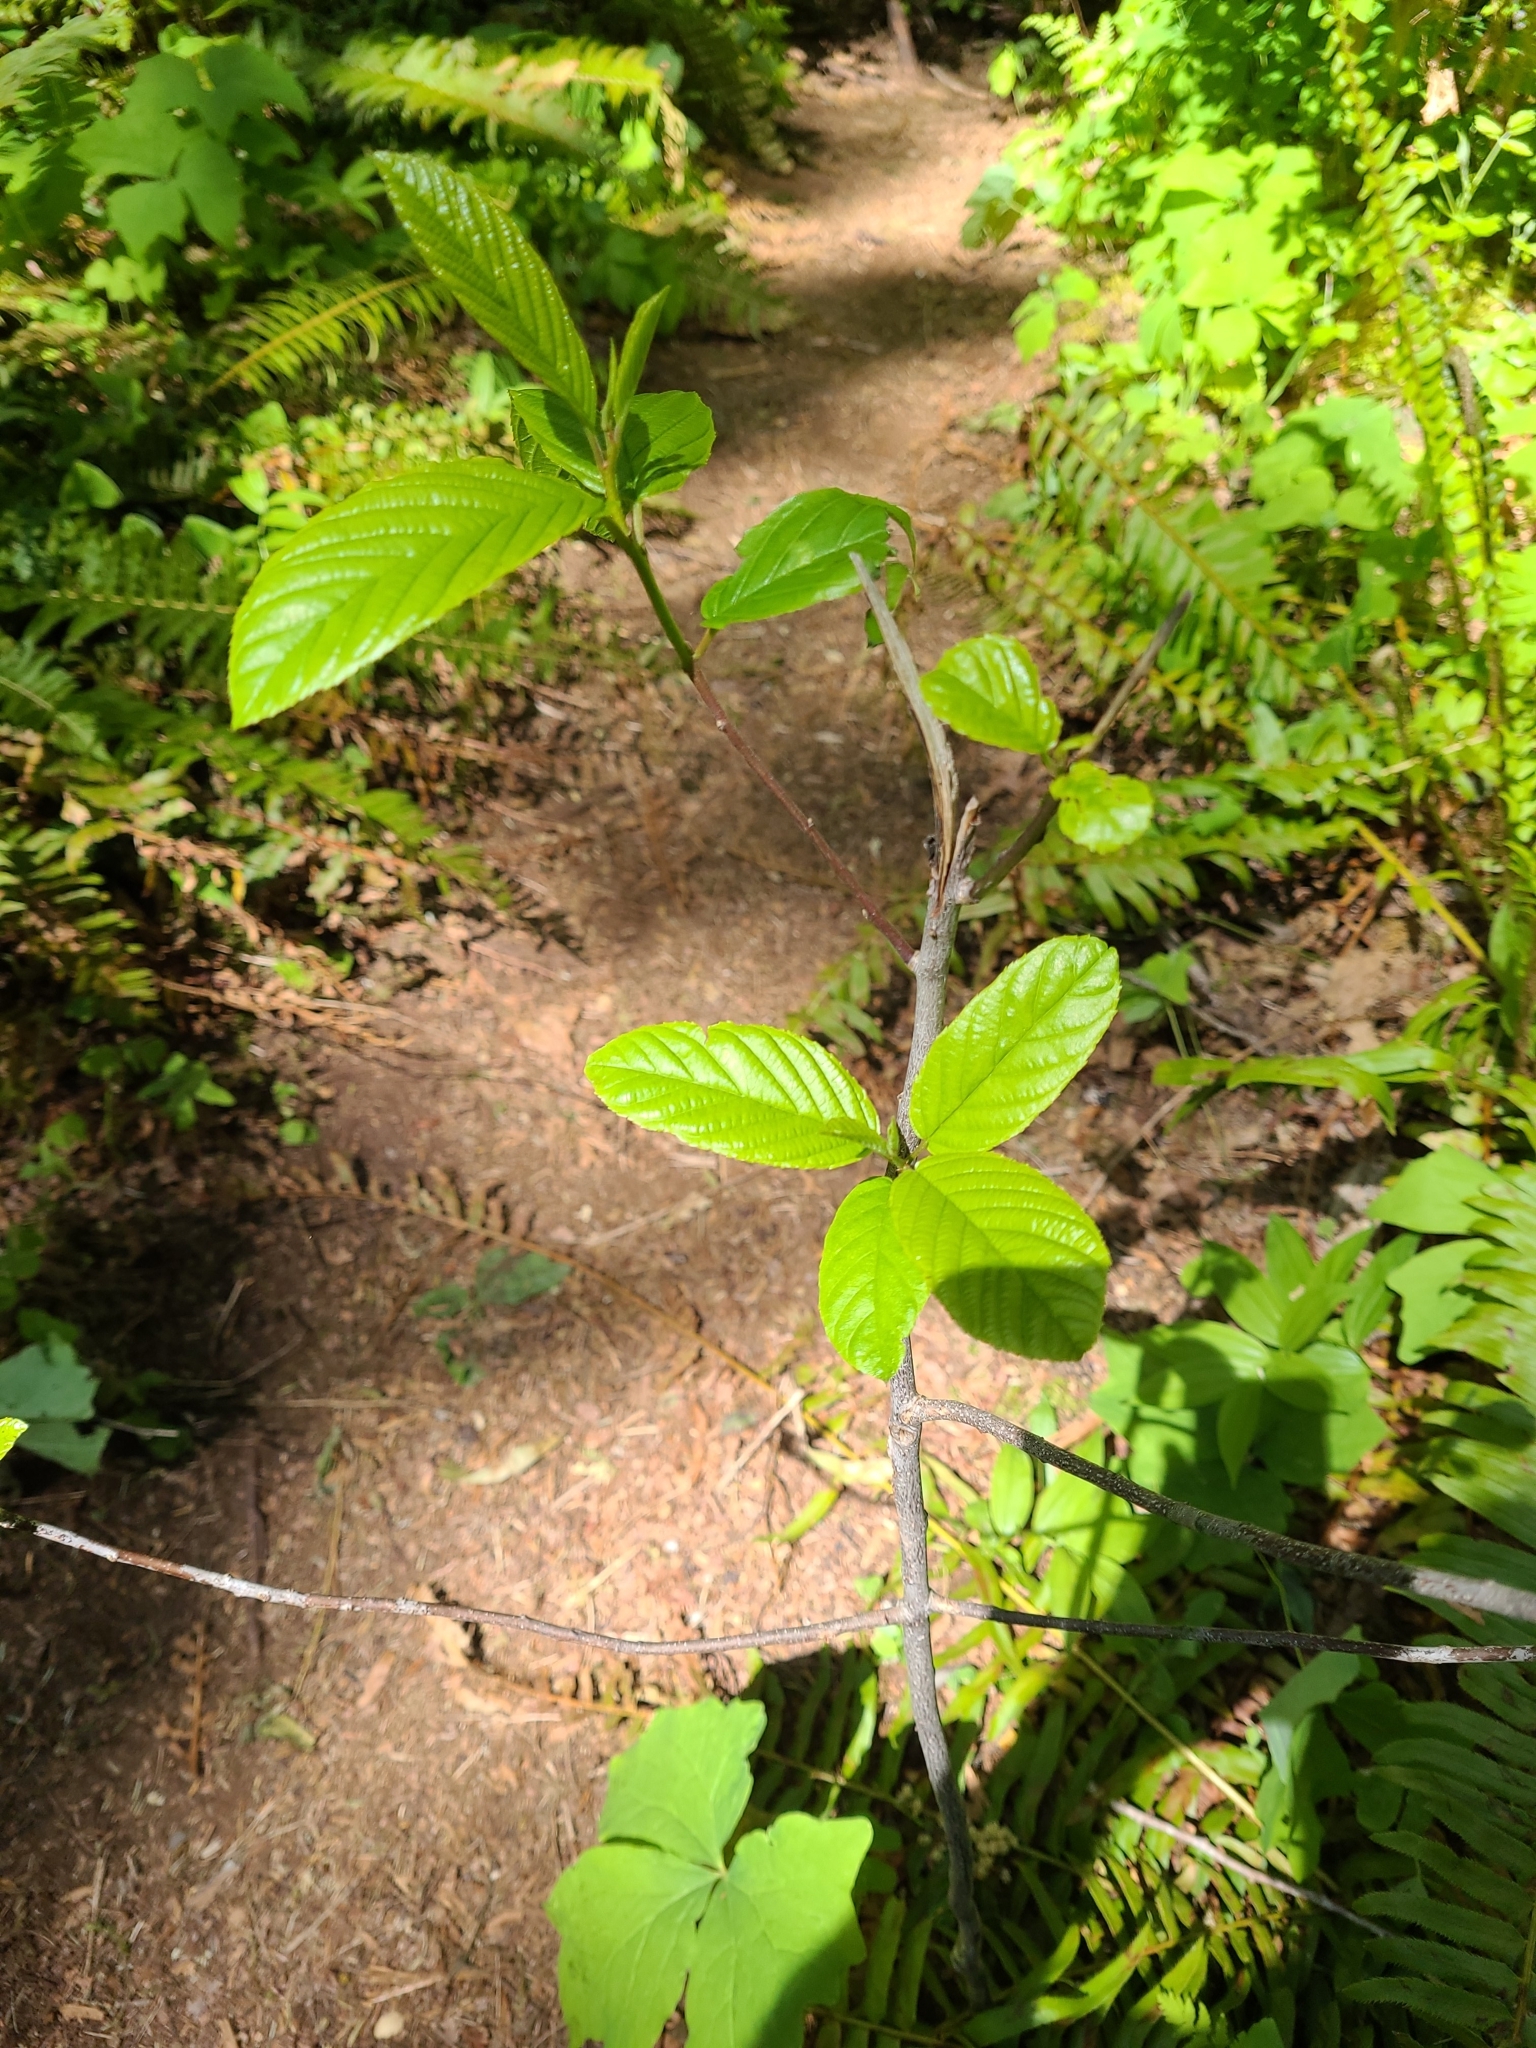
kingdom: Plantae
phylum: Tracheophyta
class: Magnoliopsida
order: Rosales
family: Rhamnaceae
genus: Frangula
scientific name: Frangula purshiana
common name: Cascara buckthorn
